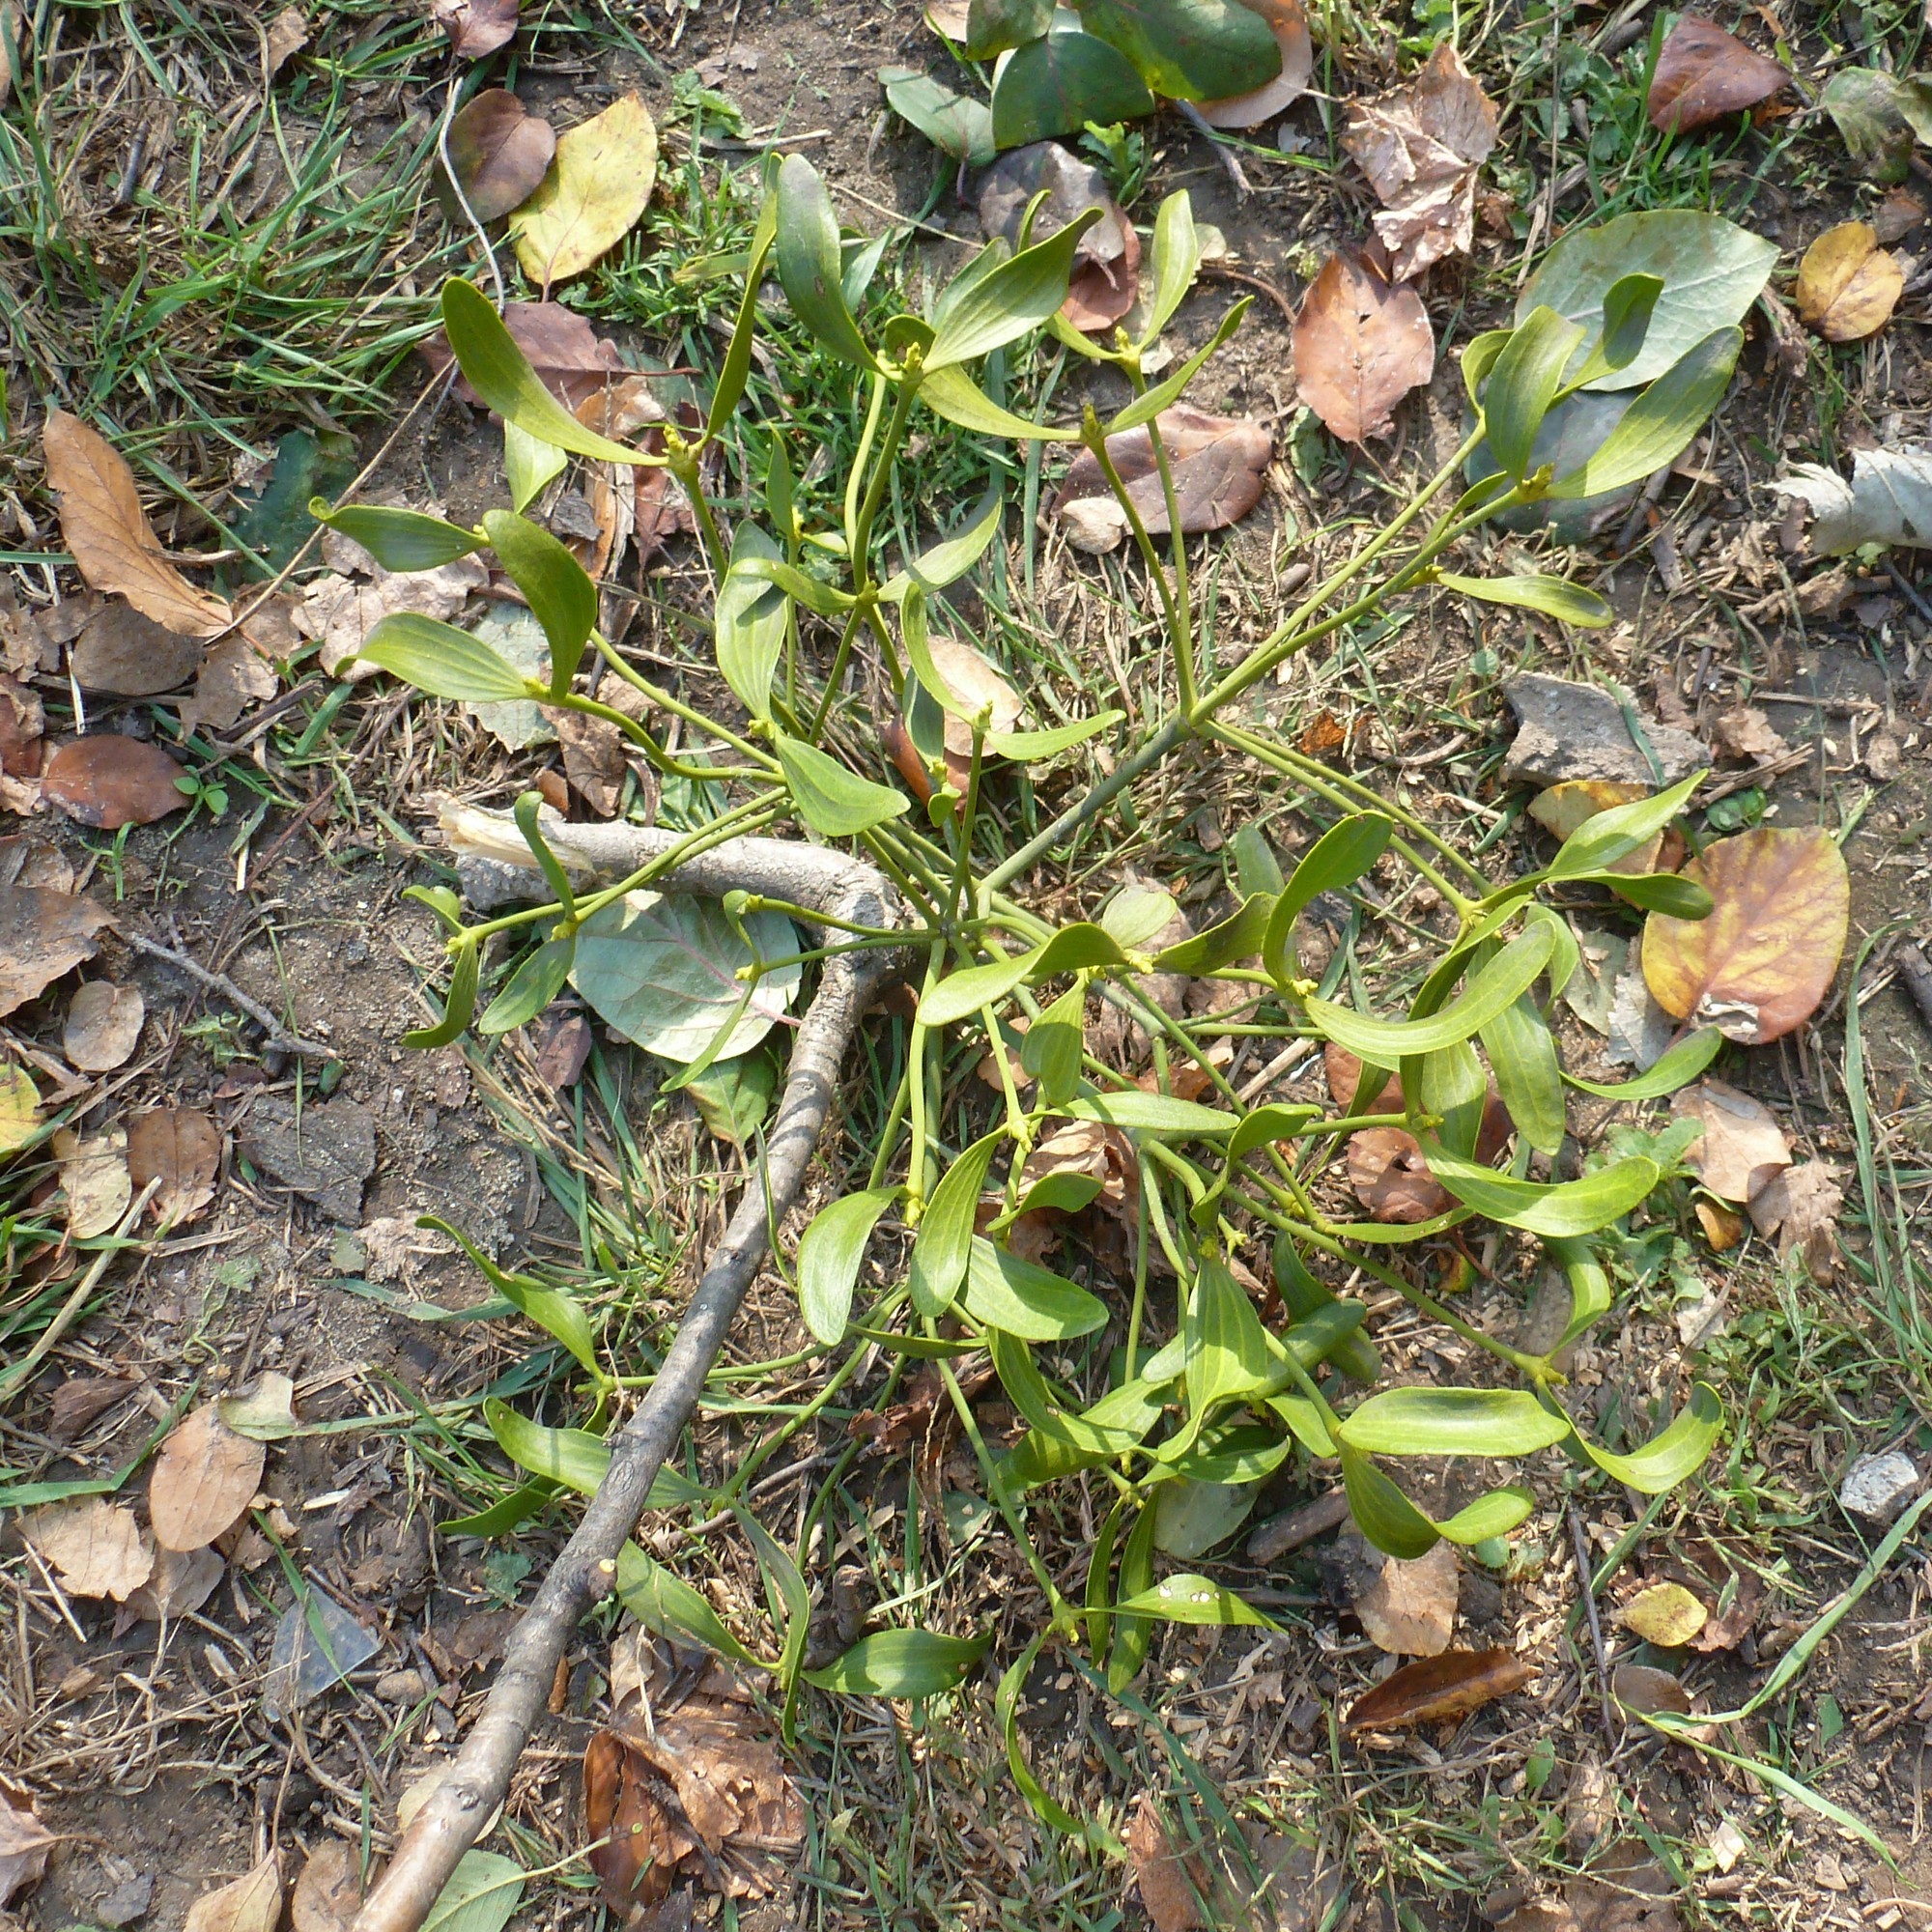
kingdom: Plantae
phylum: Tracheophyta
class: Magnoliopsida
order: Santalales
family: Viscaceae
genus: Viscum
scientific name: Viscum album
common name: Mistletoe
